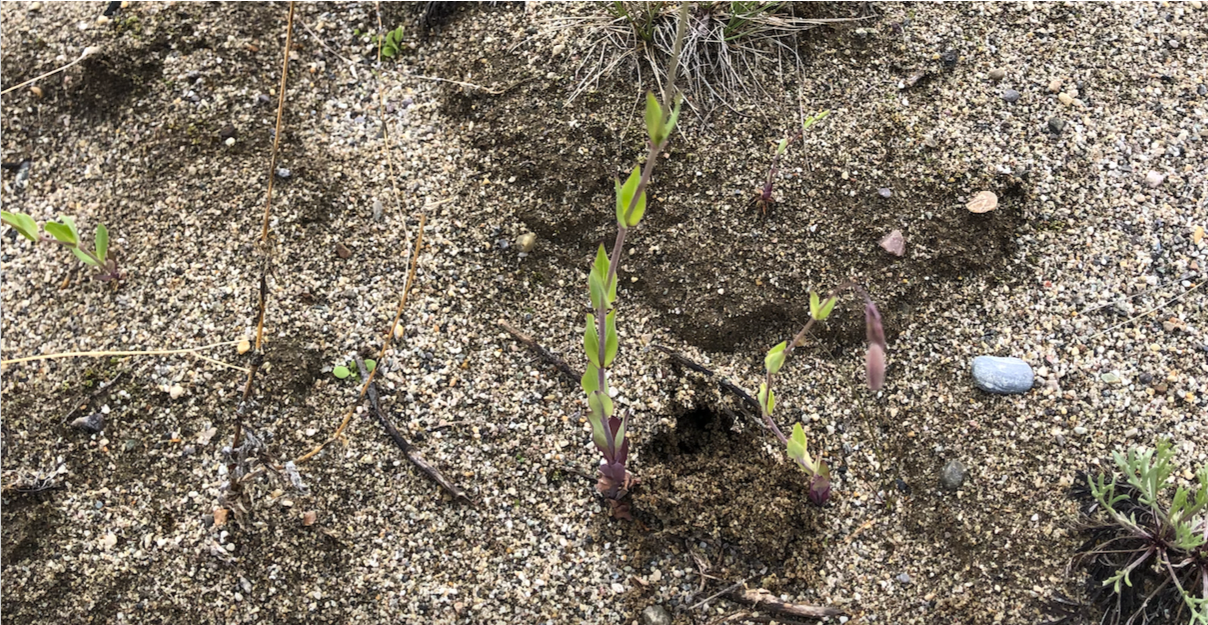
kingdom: Plantae
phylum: Tracheophyta
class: Magnoliopsida
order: Caryophyllales
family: Caryophyllaceae
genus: Silene
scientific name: Silene csereii
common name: Balkan catchfly
